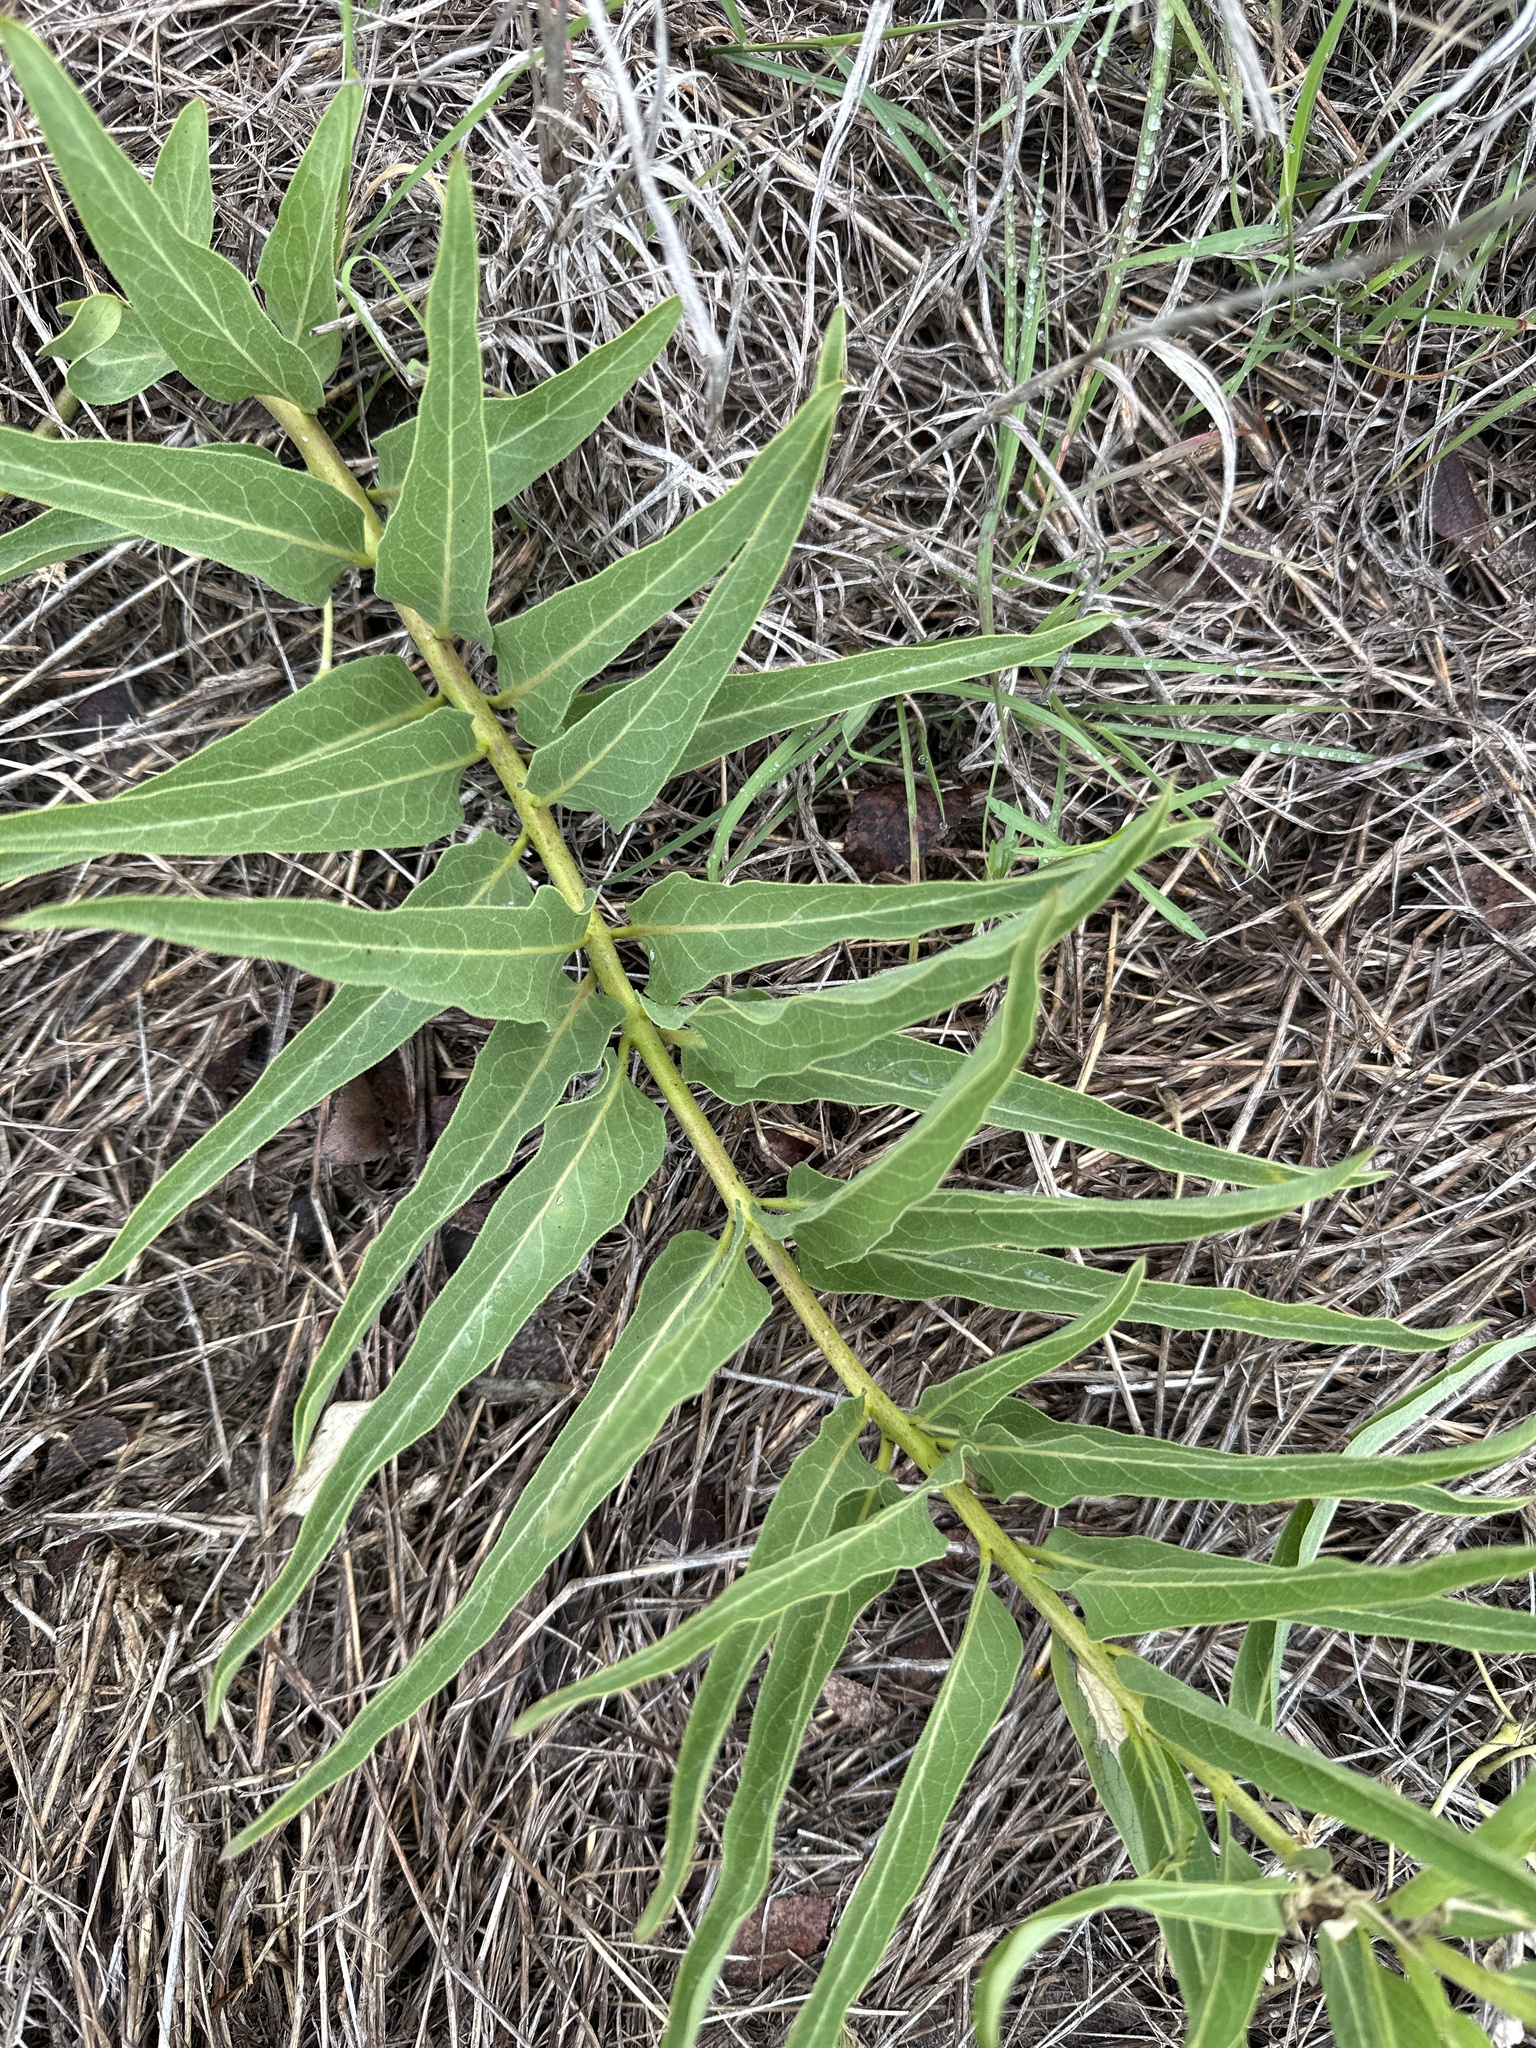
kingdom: Plantae
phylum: Tracheophyta
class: Magnoliopsida
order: Gentianales
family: Apocynaceae
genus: Asclepias
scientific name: Asclepias asperula
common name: Antelope horns
